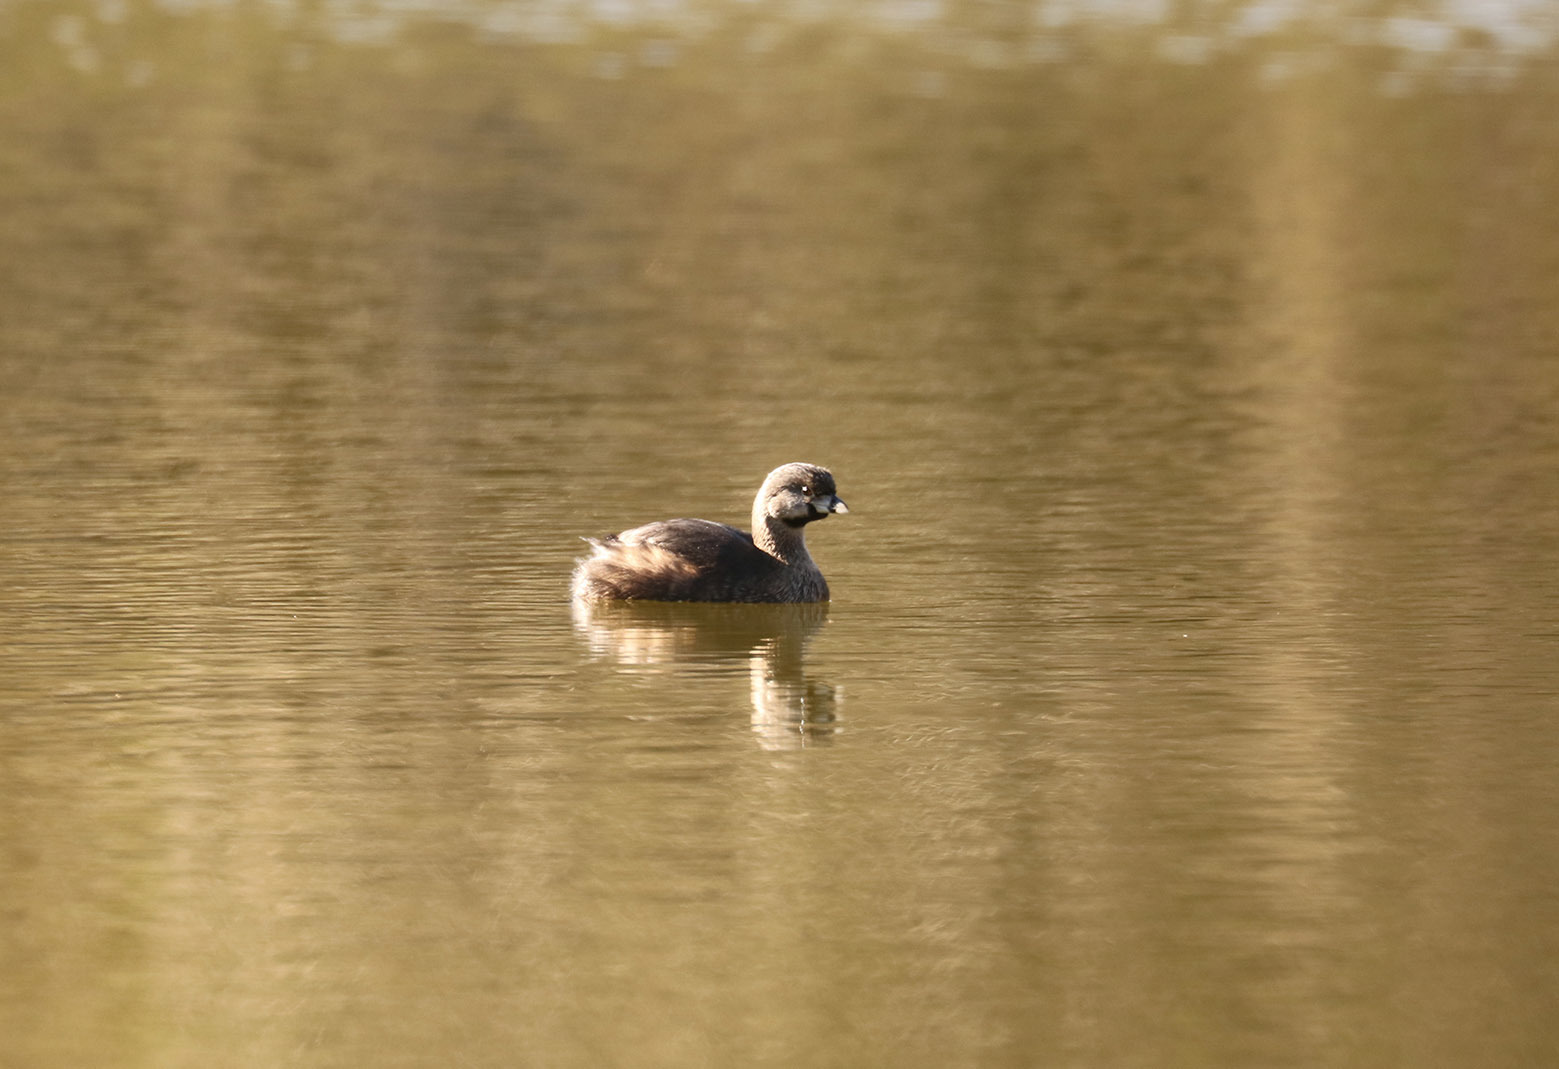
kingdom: Animalia
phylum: Chordata
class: Aves
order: Podicipediformes
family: Podicipedidae
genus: Podilymbus
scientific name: Podilymbus podiceps
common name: Pied-billed grebe
